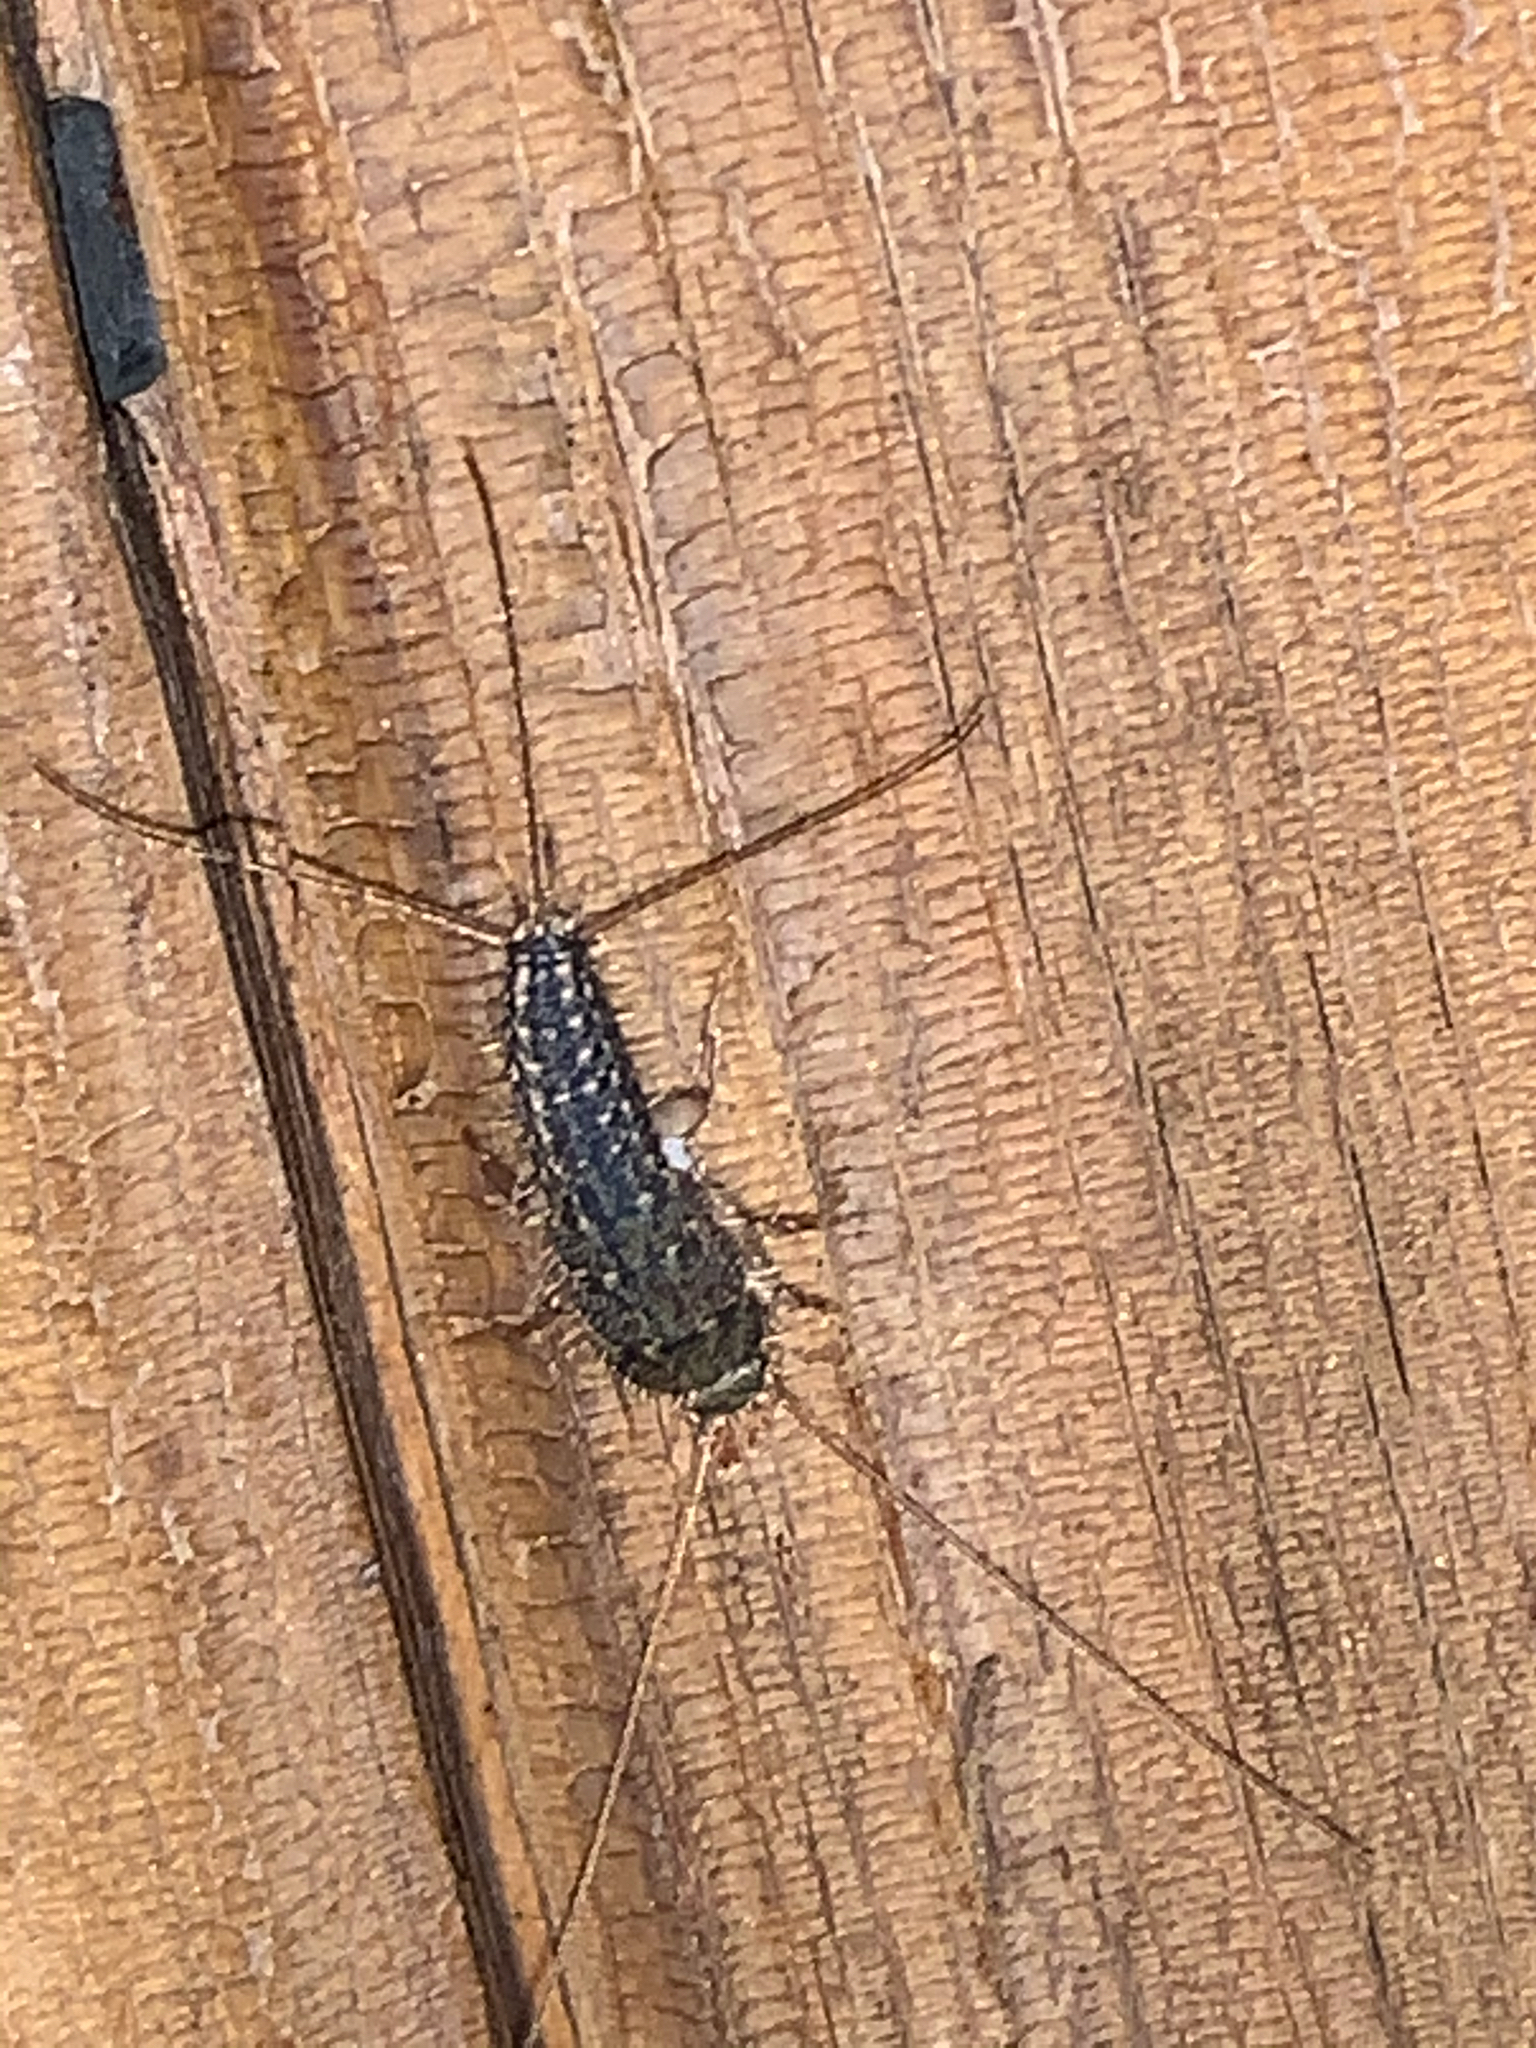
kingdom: Animalia
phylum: Arthropoda
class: Insecta
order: Zygentoma
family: Lepismatidae
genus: Ctenolepisma
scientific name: Ctenolepisma lineata
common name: Four-lined silverfish
